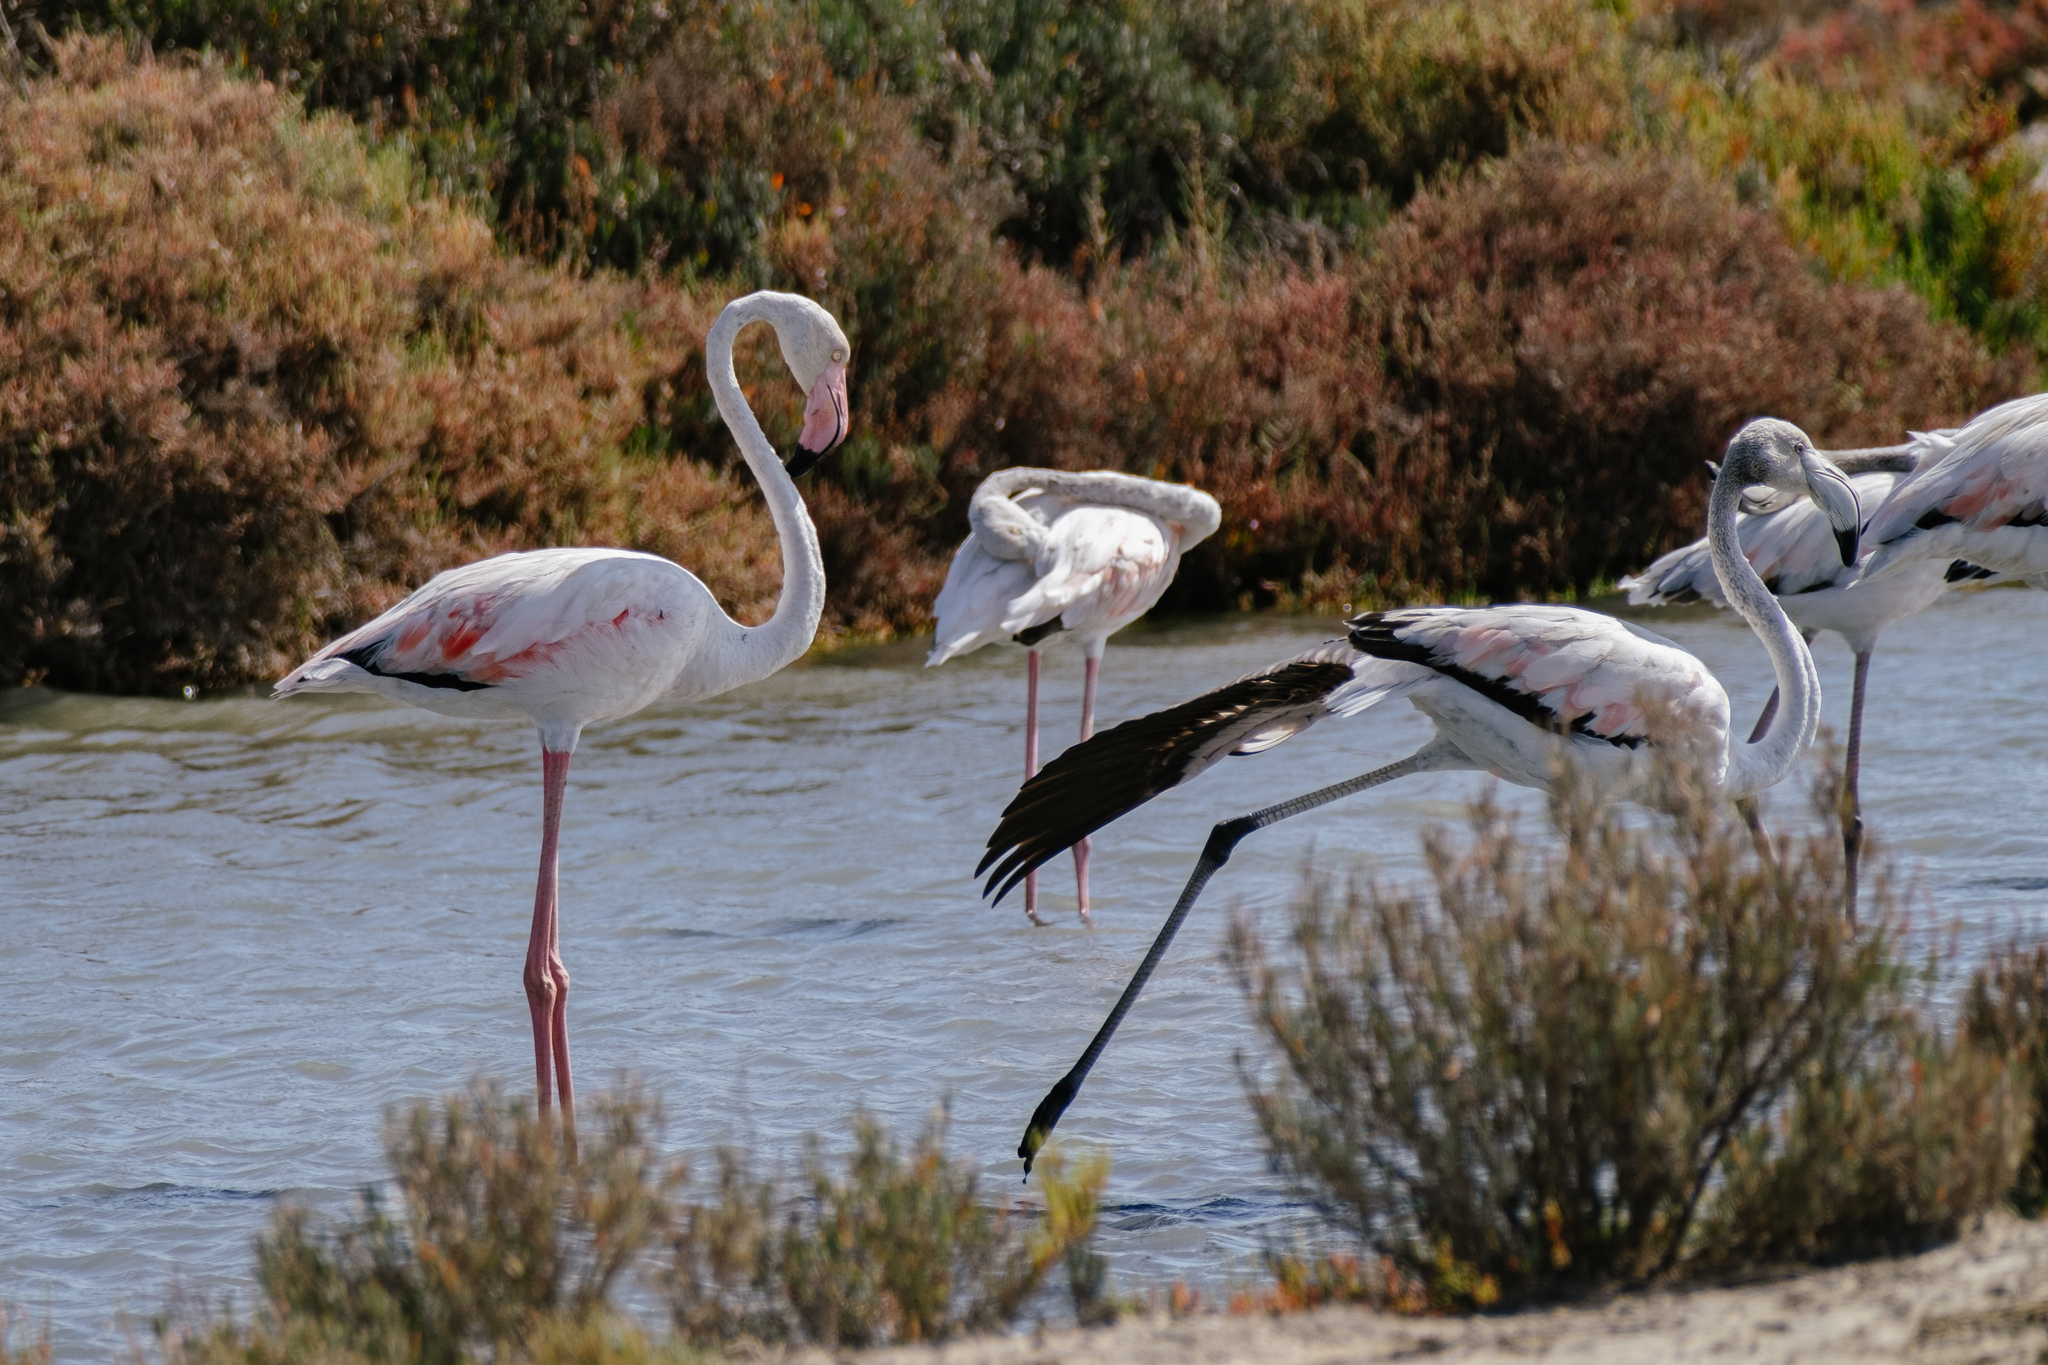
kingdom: Animalia
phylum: Chordata
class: Aves
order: Phoenicopteriformes
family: Phoenicopteridae
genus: Phoenicopterus
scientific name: Phoenicopterus roseus
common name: Greater flamingo
